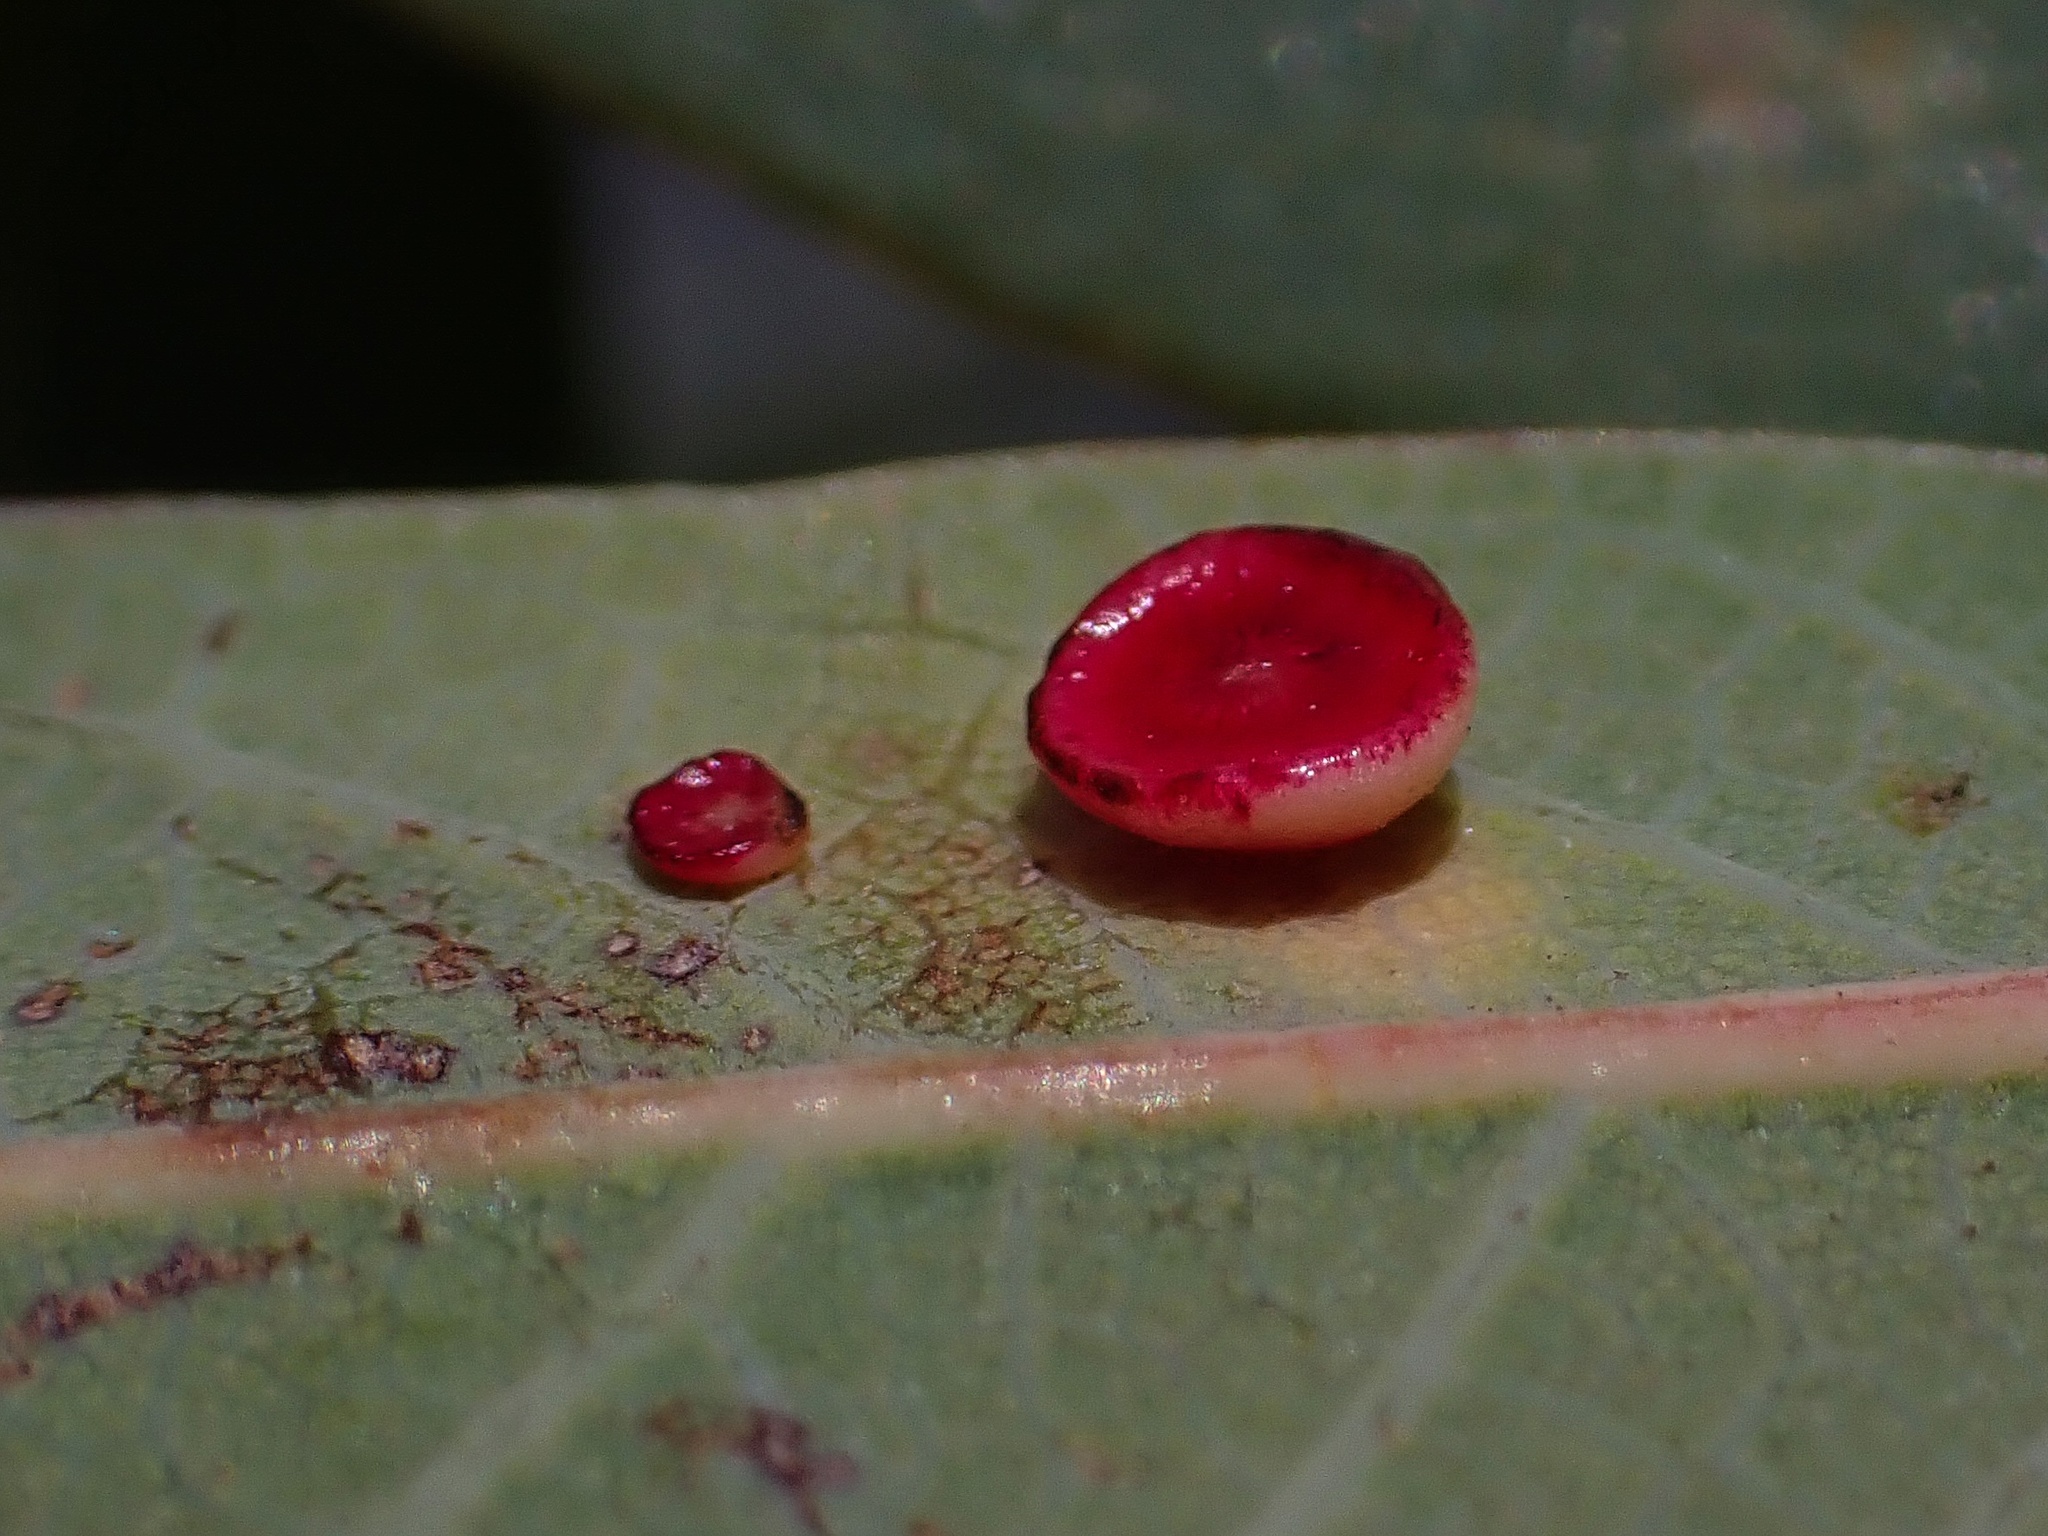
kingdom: Animalia
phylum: Arthropoda
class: Insecta
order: Hymenoptera
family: Cynipidae
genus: Andricus
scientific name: Andricus
